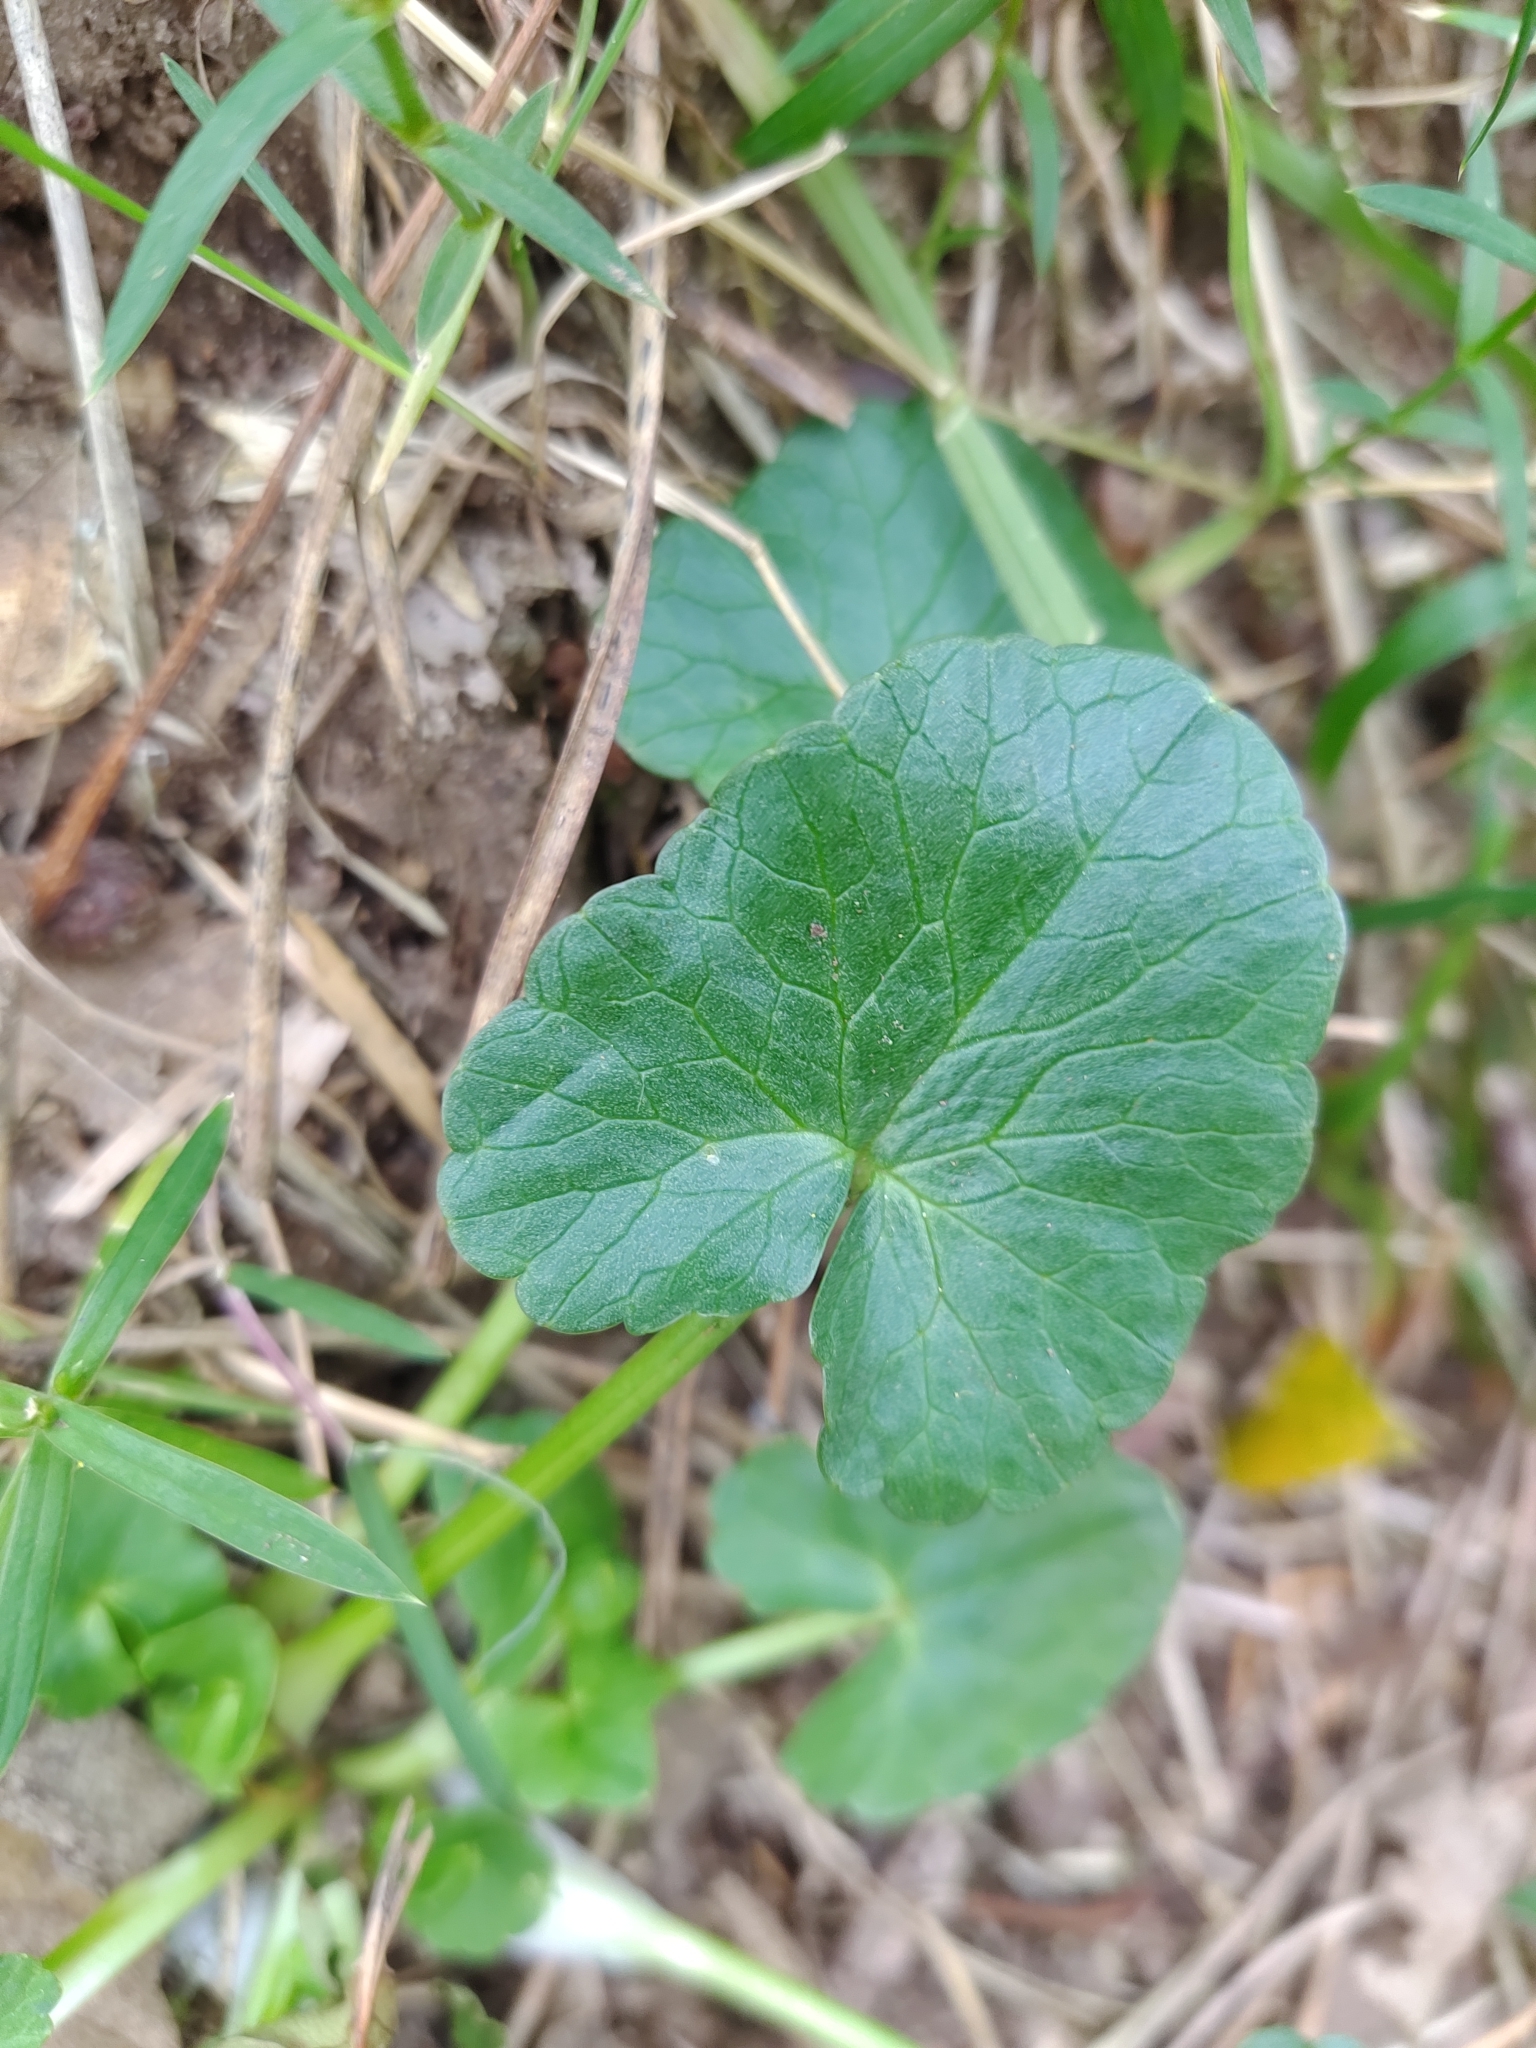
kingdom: Plantae
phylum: Tracheophyta
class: Magnoliopsida
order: Ranunculales
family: Ranunculaceae
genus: Ficaria
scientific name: Ficaria verna
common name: Lesser celandine
